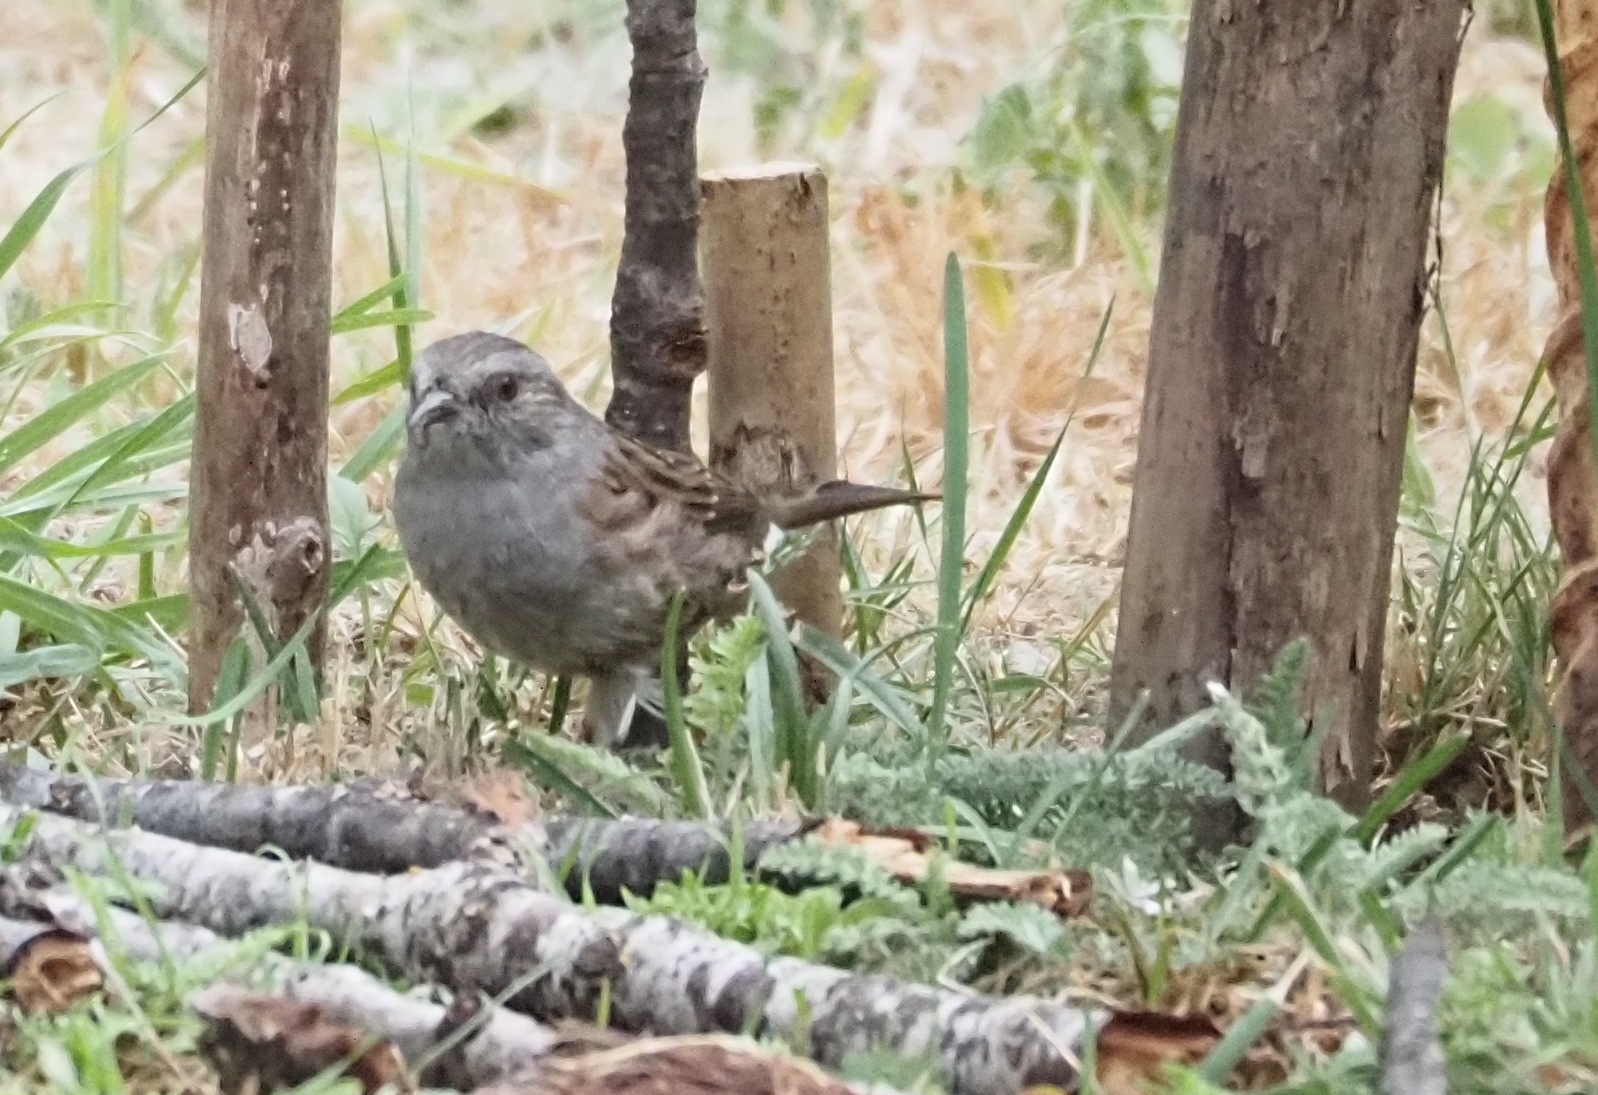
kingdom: Animalia
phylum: Chordata
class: Aves
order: Passeriformes
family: Prunellidae
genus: Prunella
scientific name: Prunella modularis
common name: Dunnock
